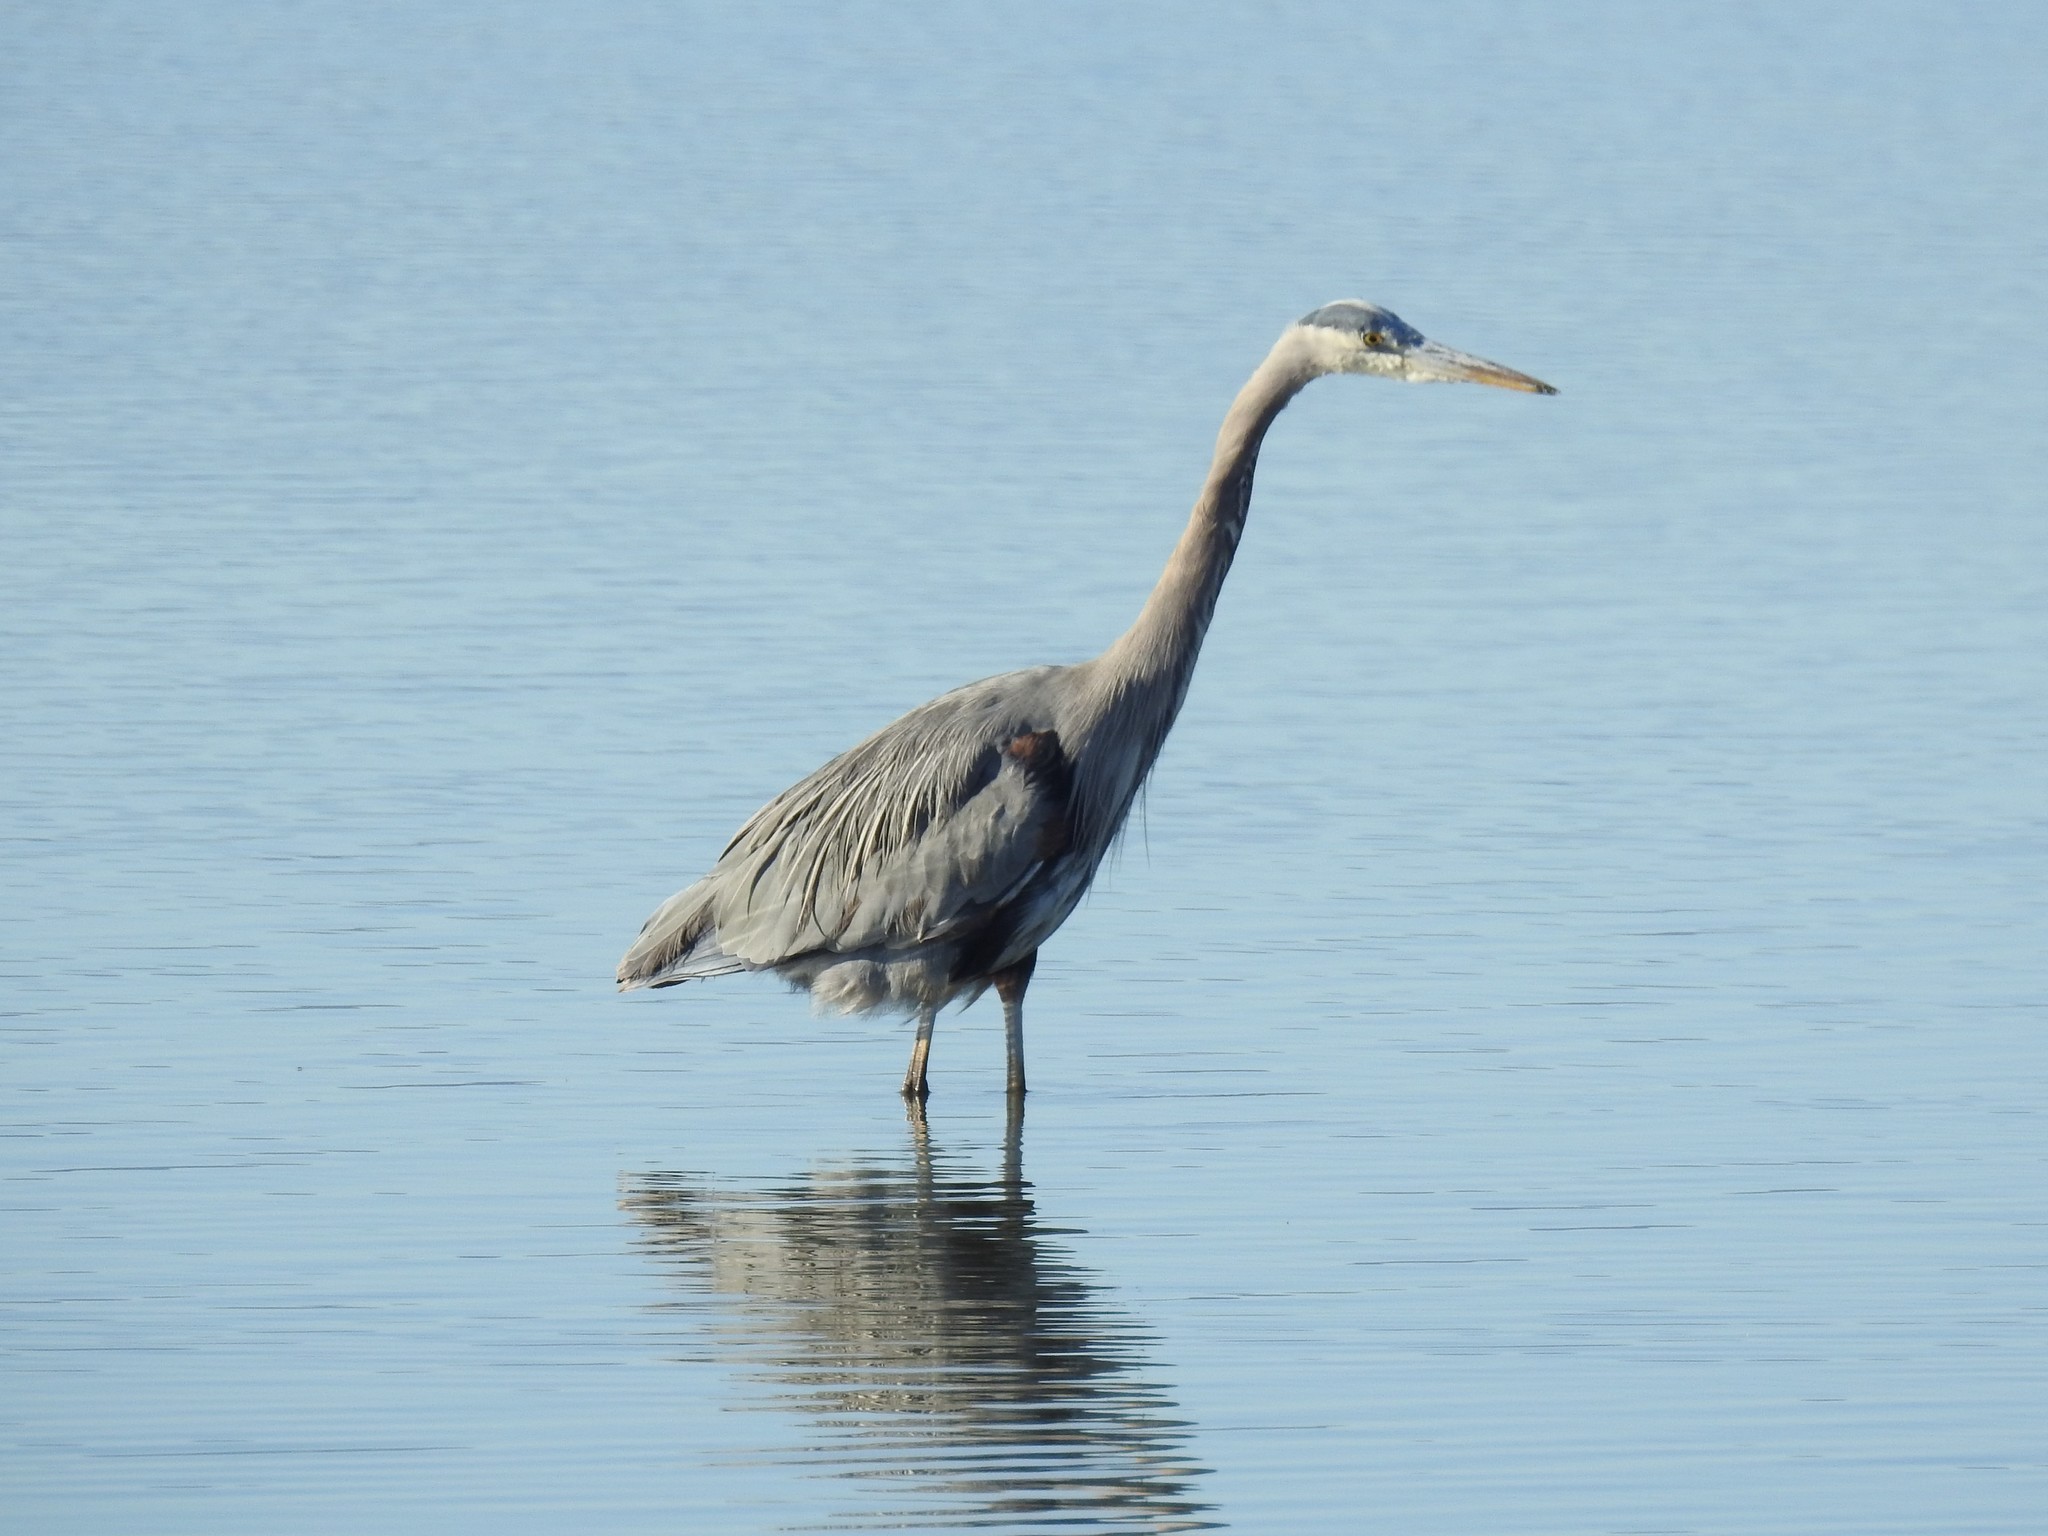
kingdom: Animalia
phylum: Chordata
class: Aves
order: Pelecaniformes
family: Ardeidae
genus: Ardea
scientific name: Ardea herodias
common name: Great blue heron
